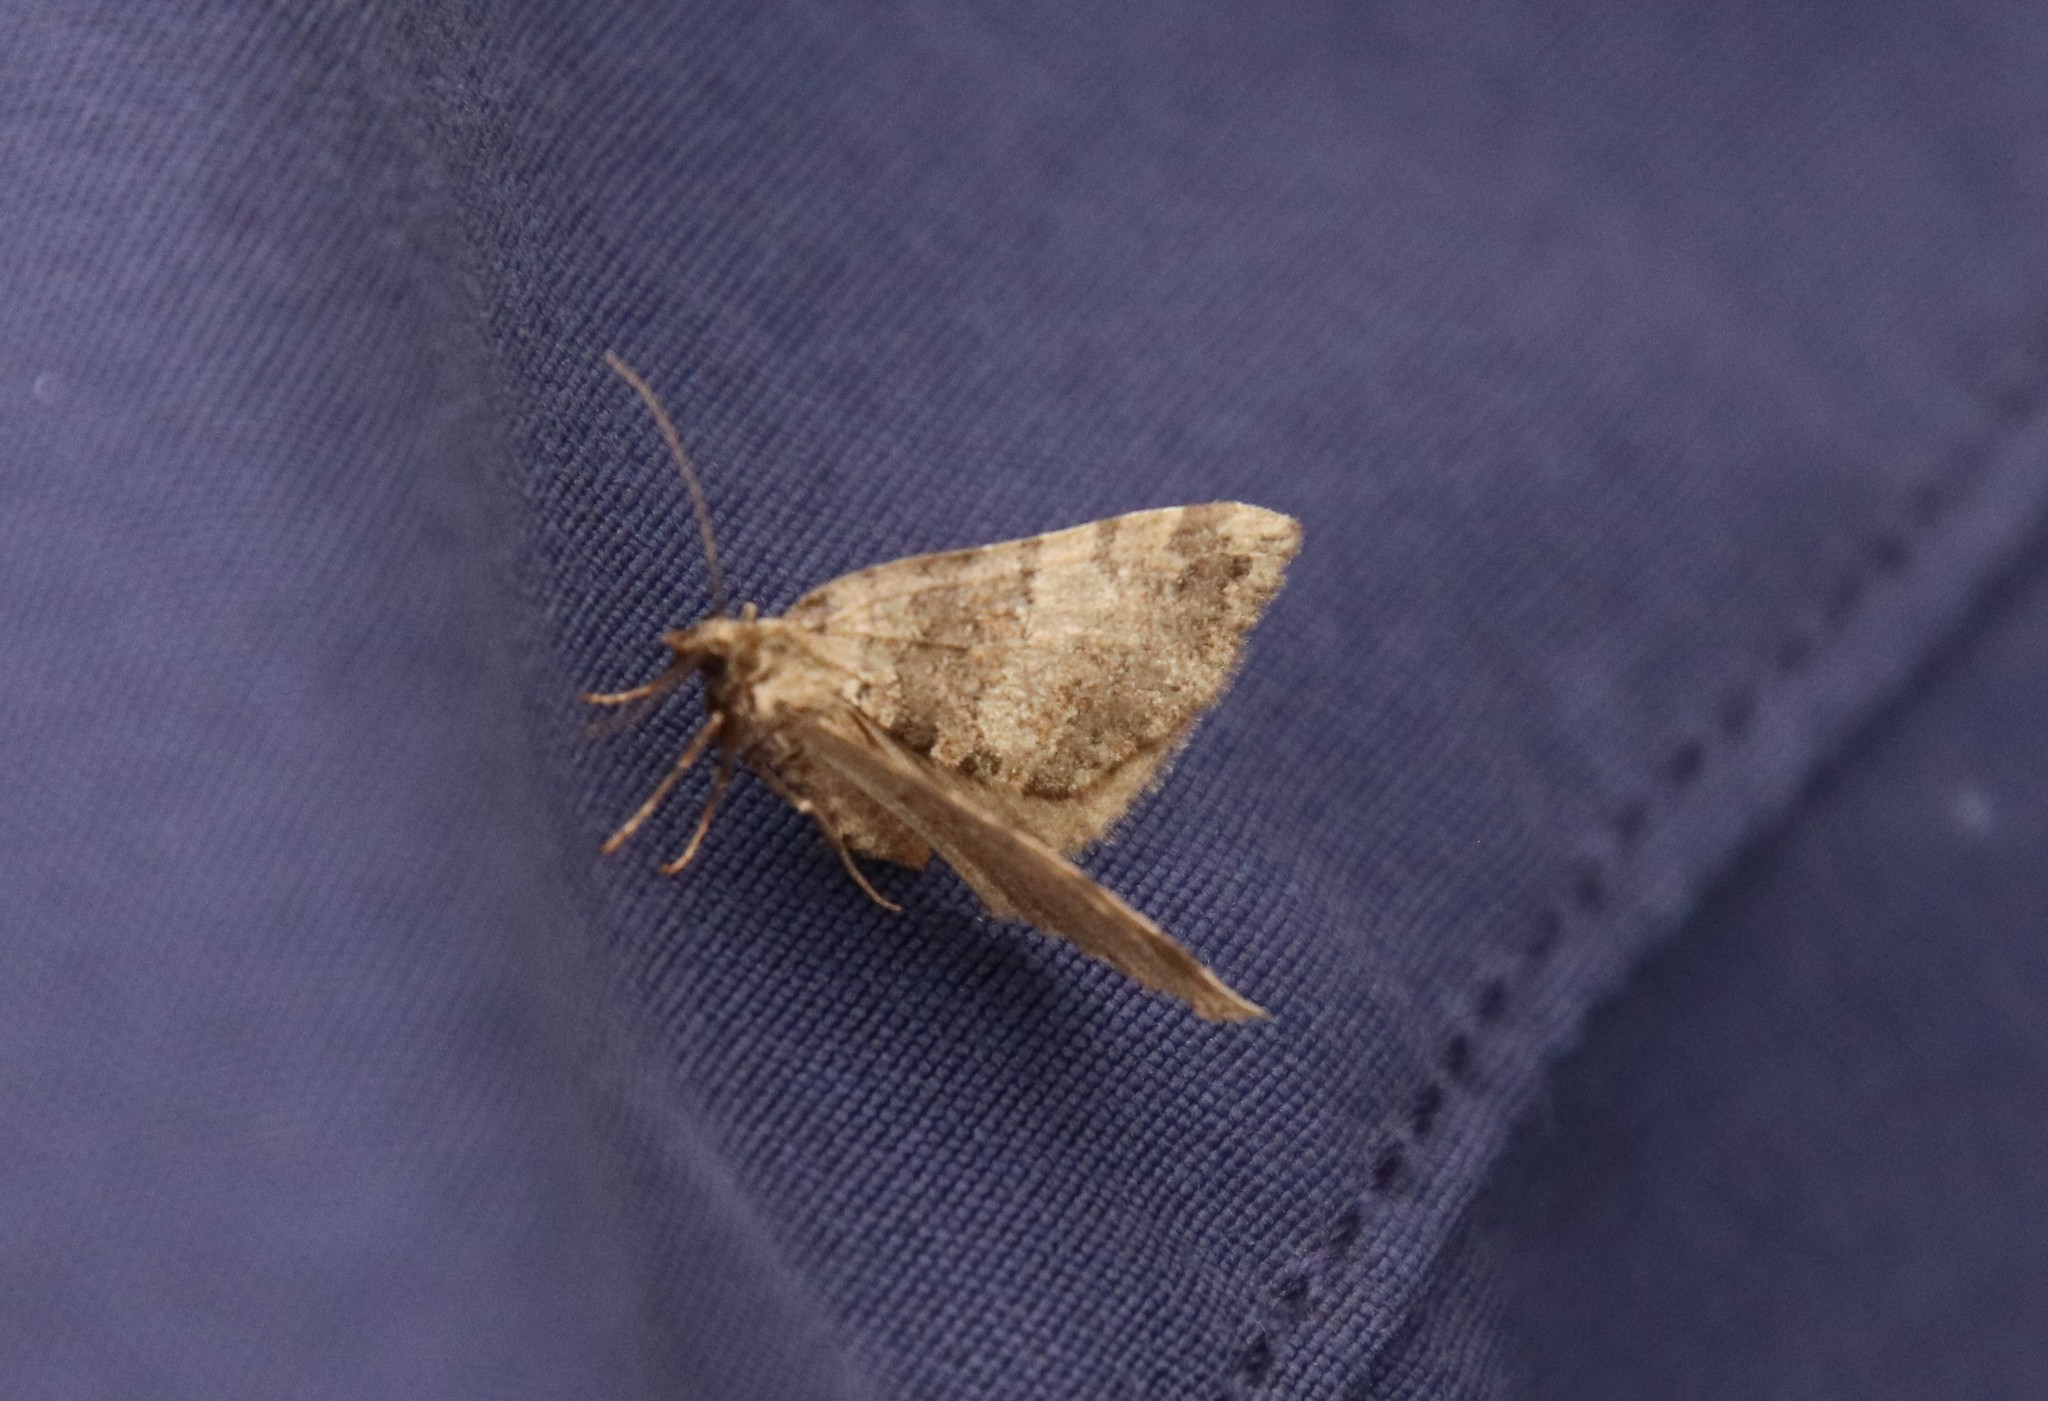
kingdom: Animalia
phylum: Arthropoda
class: Insecta
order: Lepidoptera
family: Geometridae
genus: Hydriomena
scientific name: Hydriomena furcata
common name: July highflyer
